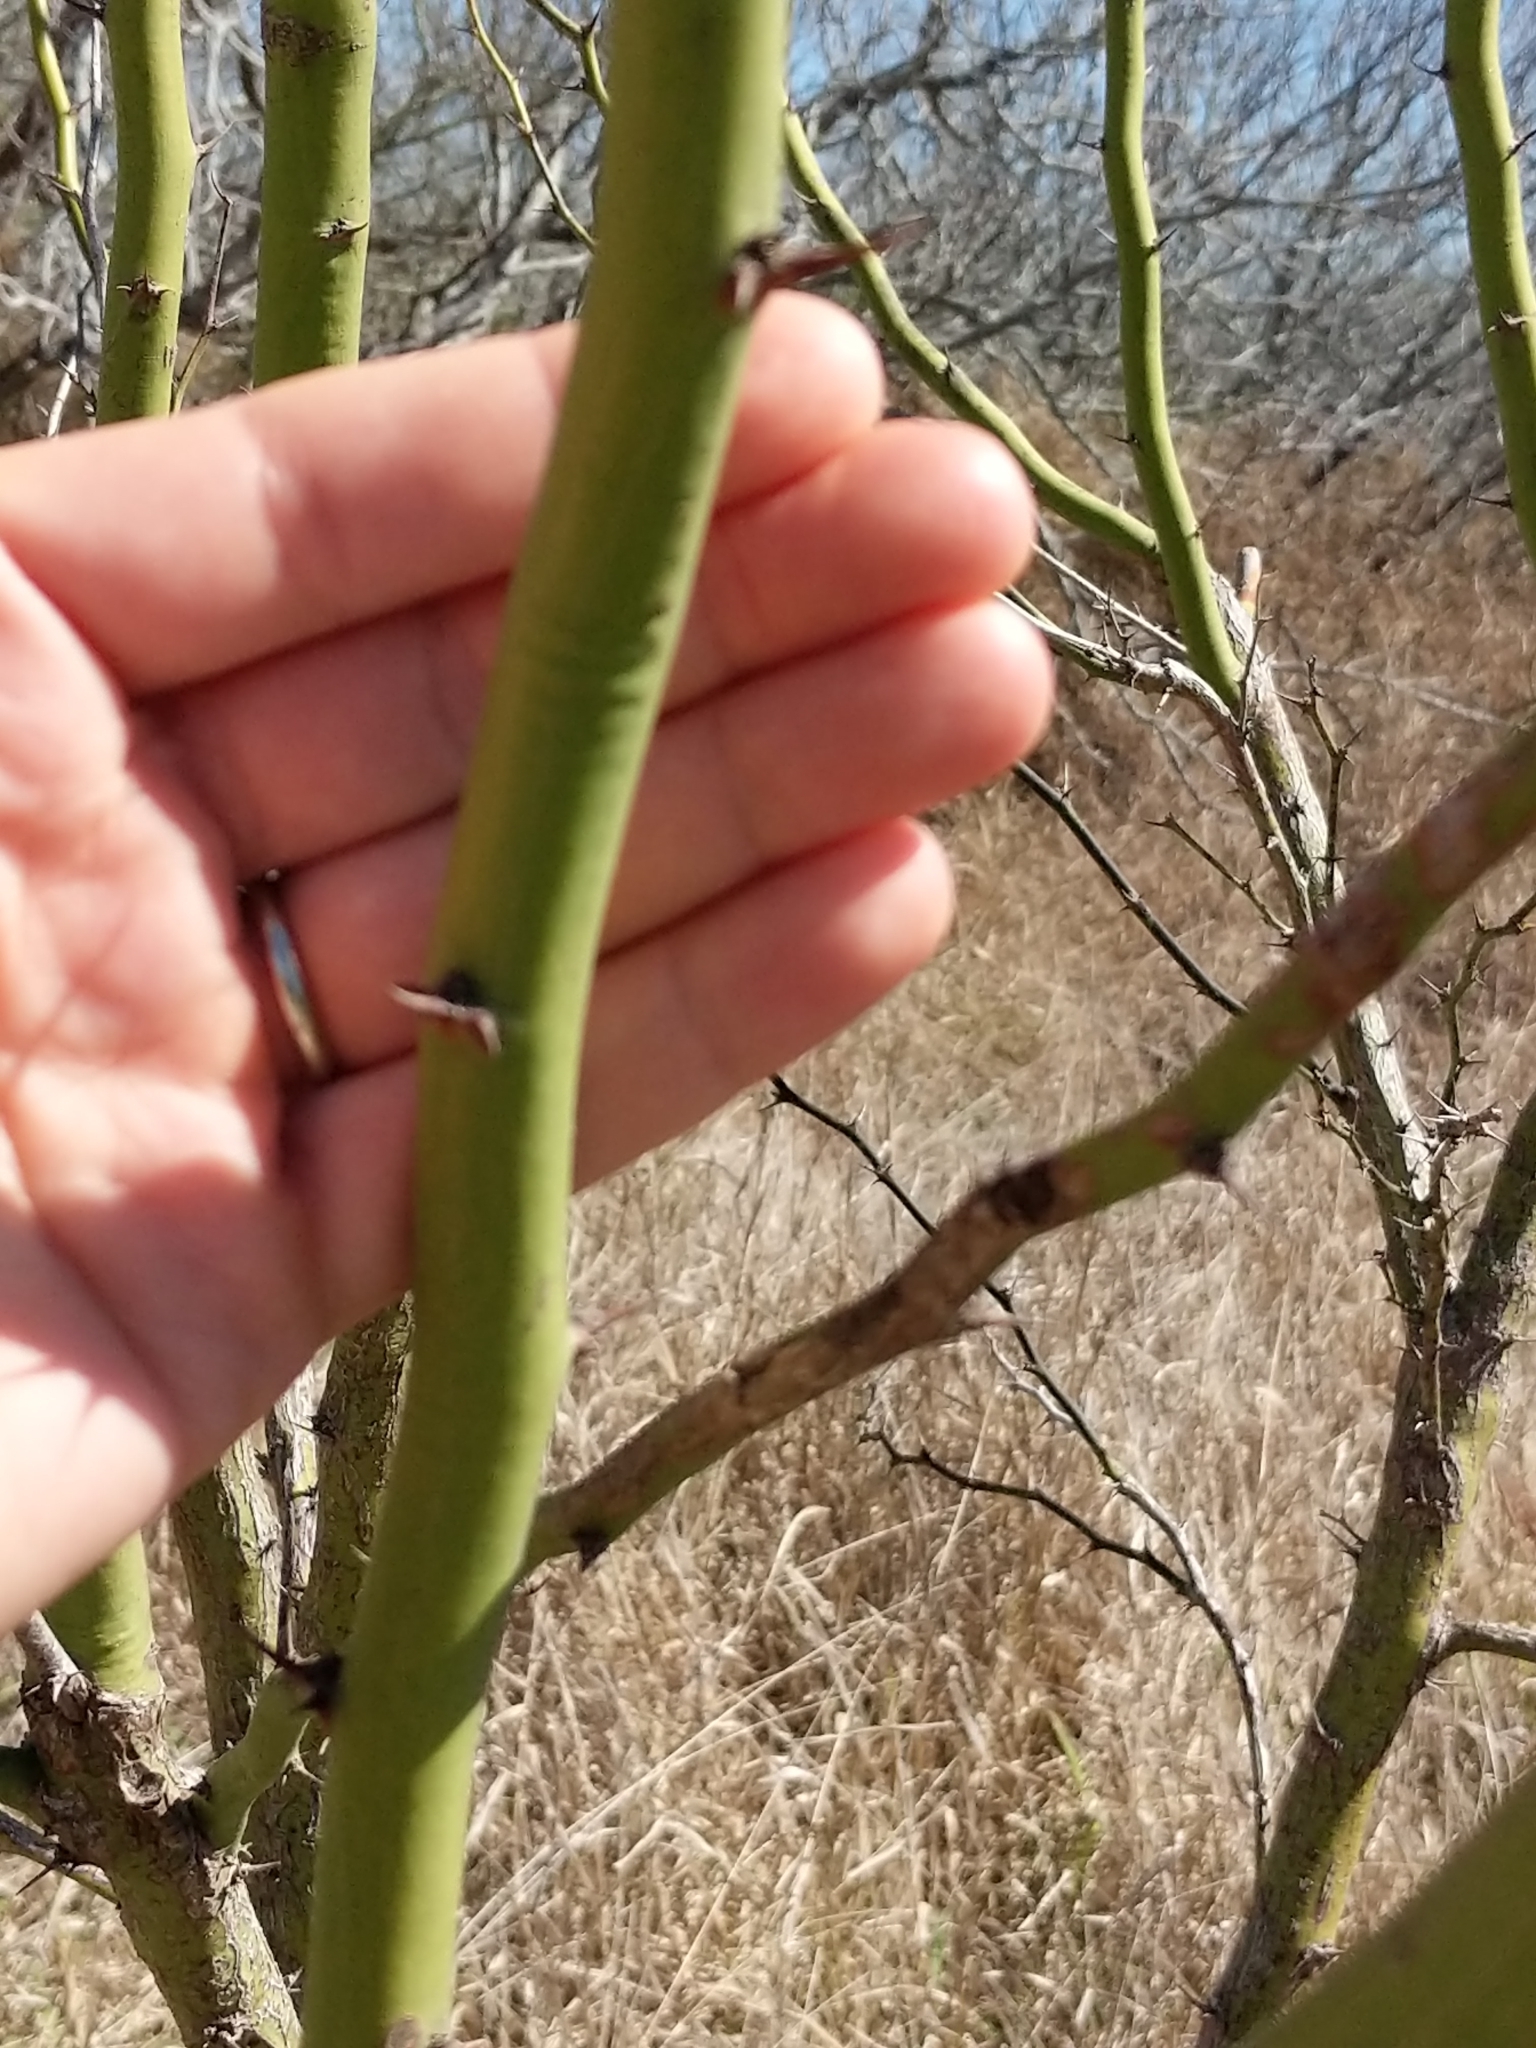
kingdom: Plantae
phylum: Tracheophyta
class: Magnoliopsida
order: Fabales
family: Fabaceae
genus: Parkinsonia
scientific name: Parkinsonia aculeata
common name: Jerusalem thorn
